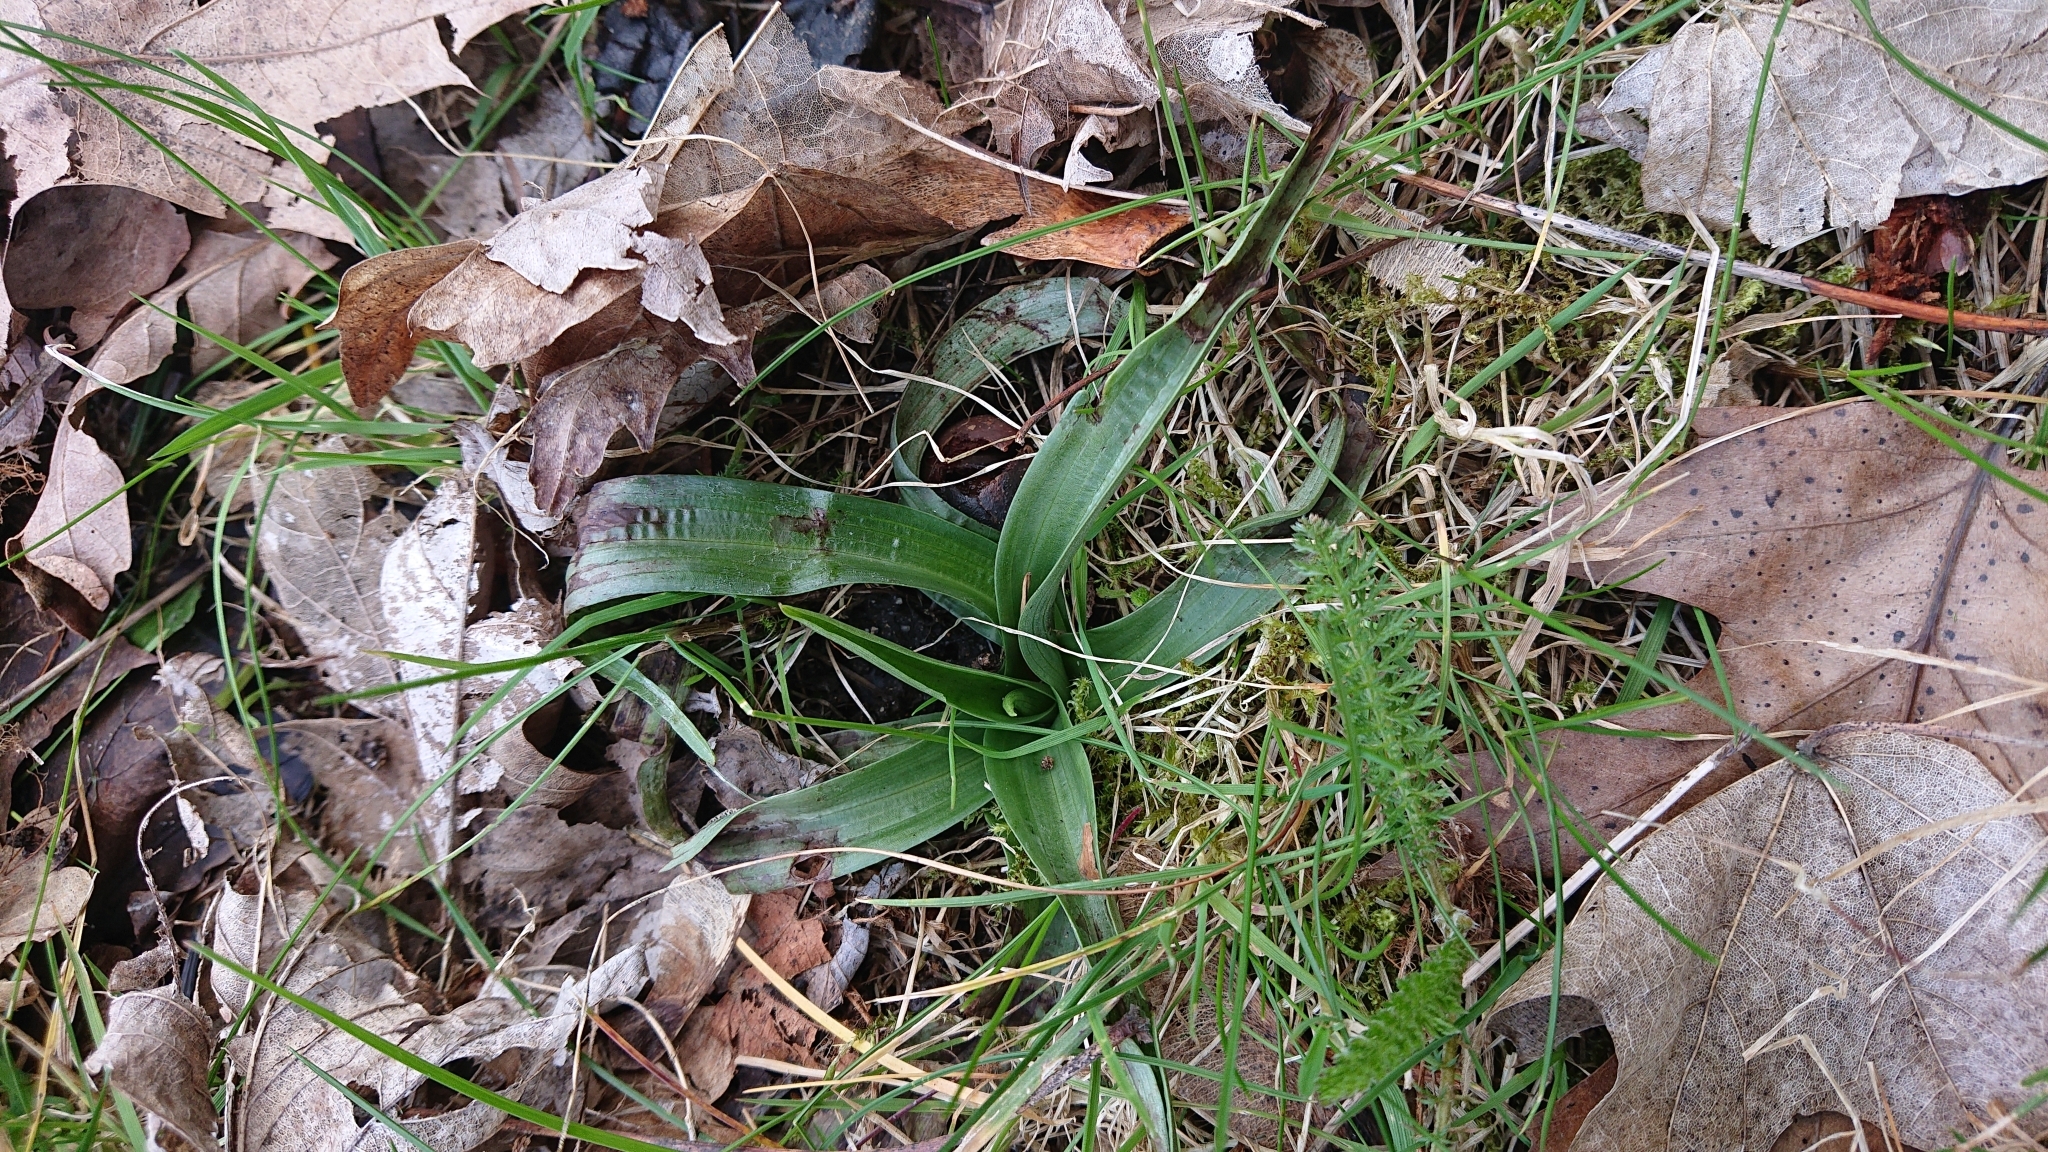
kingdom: Plantae
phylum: Tracheophyta
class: Liliopsida
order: Asparagales
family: Orchidaceae
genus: Anacamptis
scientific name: Anacamptis pyramidalis
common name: Pyramidal orchid
